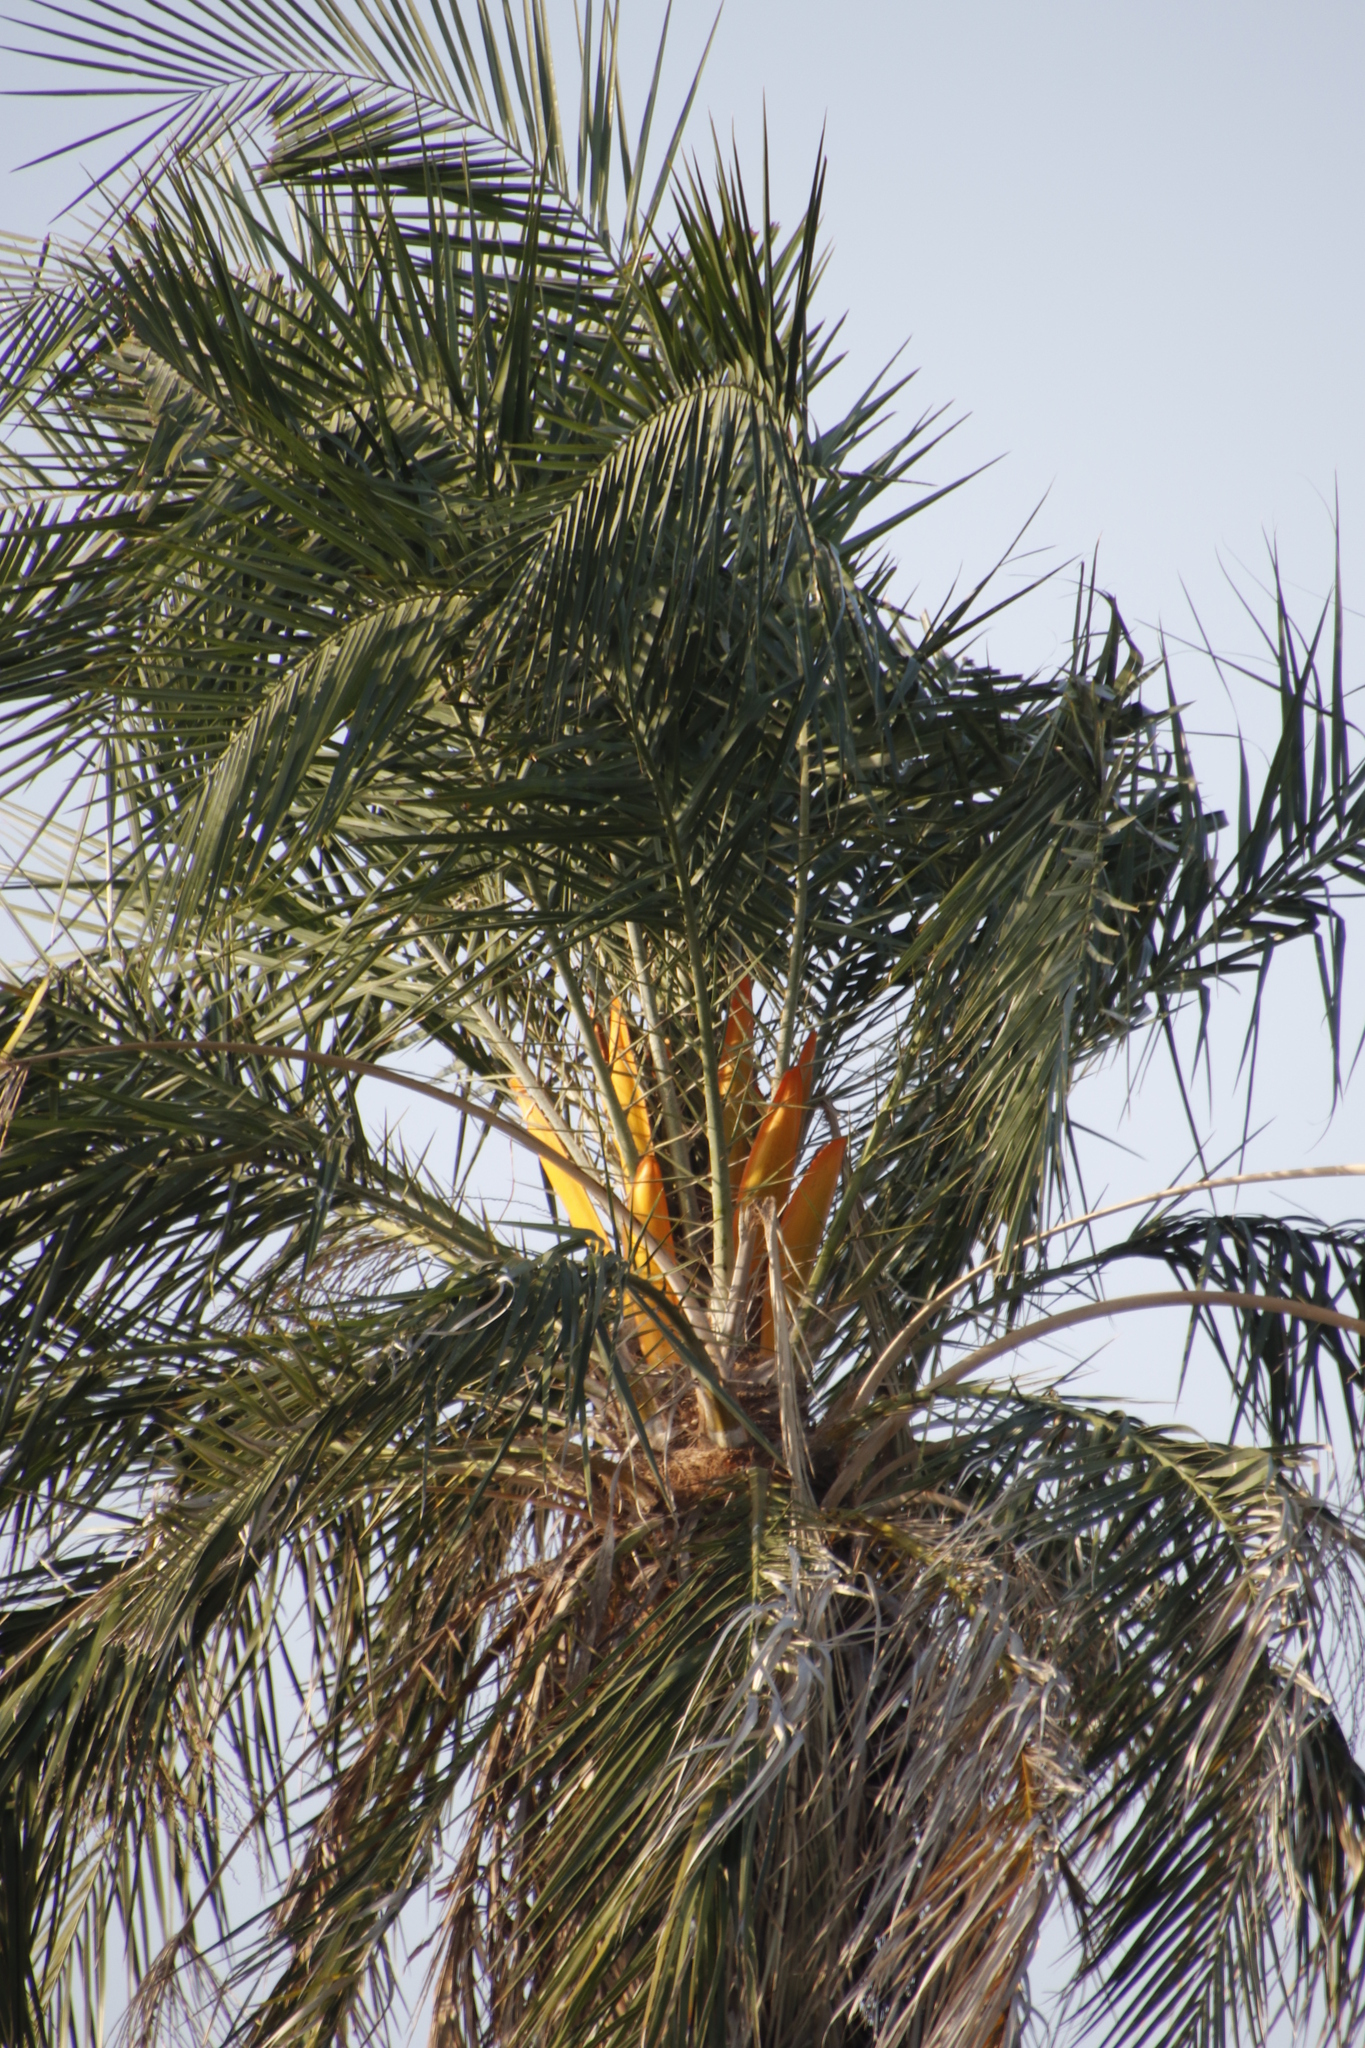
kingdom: Plantae
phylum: Tracheophyta
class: Liliopsida
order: Arecales
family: Arecaceae
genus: Phoenix
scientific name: Phoenix reclinata
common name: Senegal date palm
